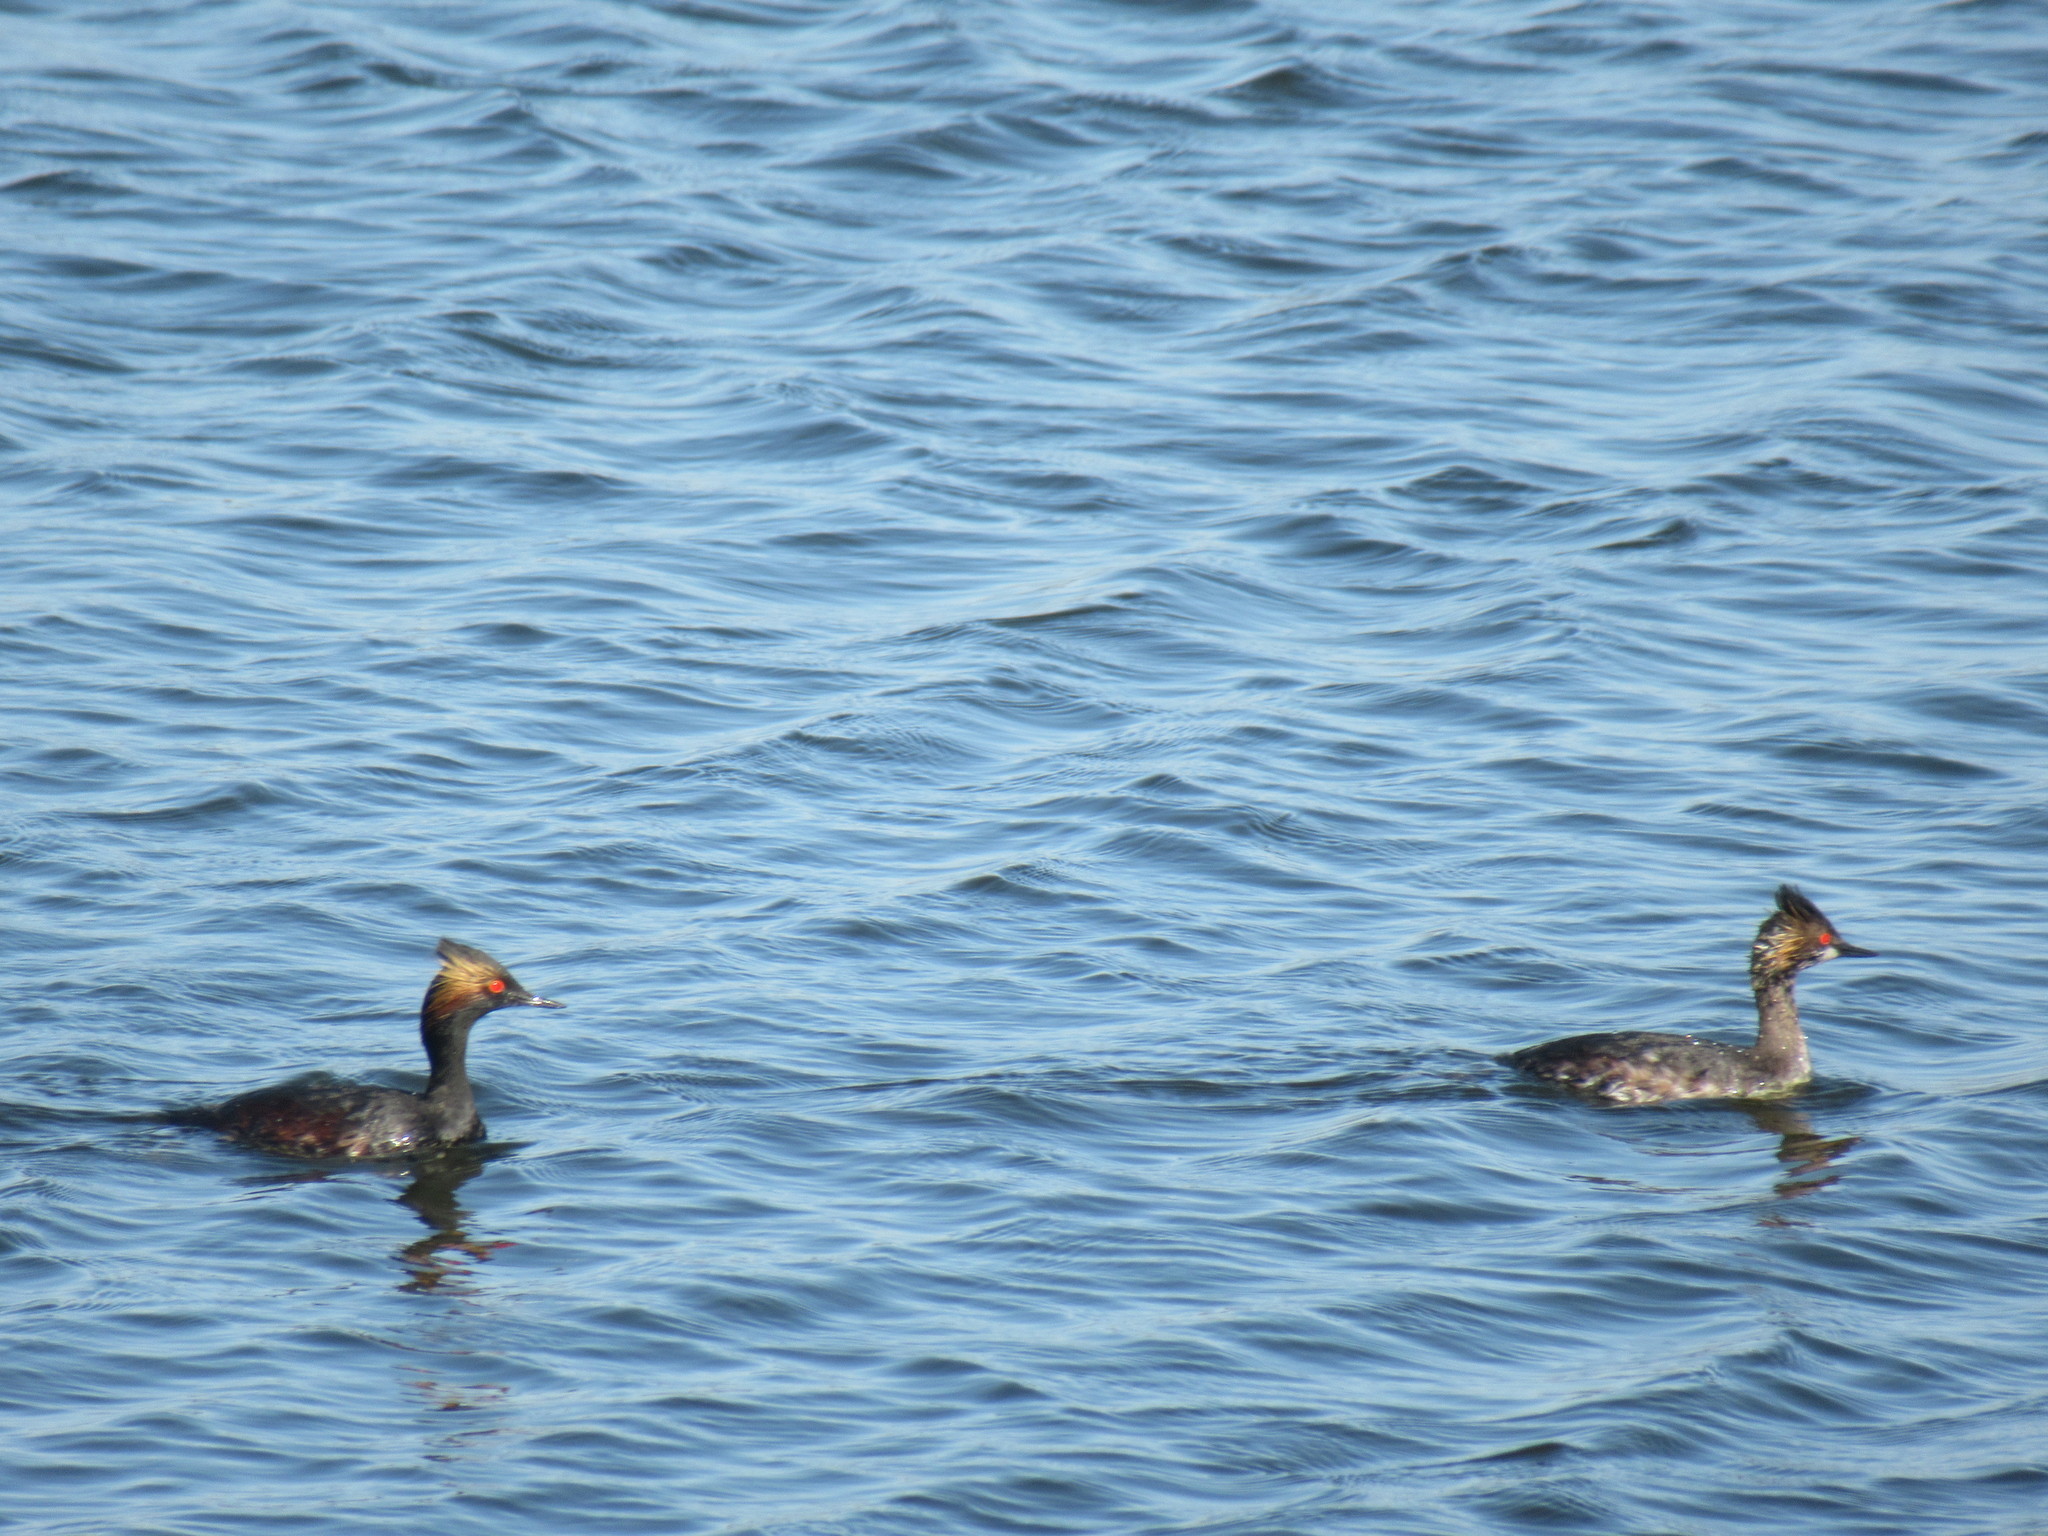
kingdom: Animalia
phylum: Chordata
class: Aves
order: Podicipediformes
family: Podicipedidae
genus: Podiceps
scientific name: Podiceps nigricollis
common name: Black-necked grebe
